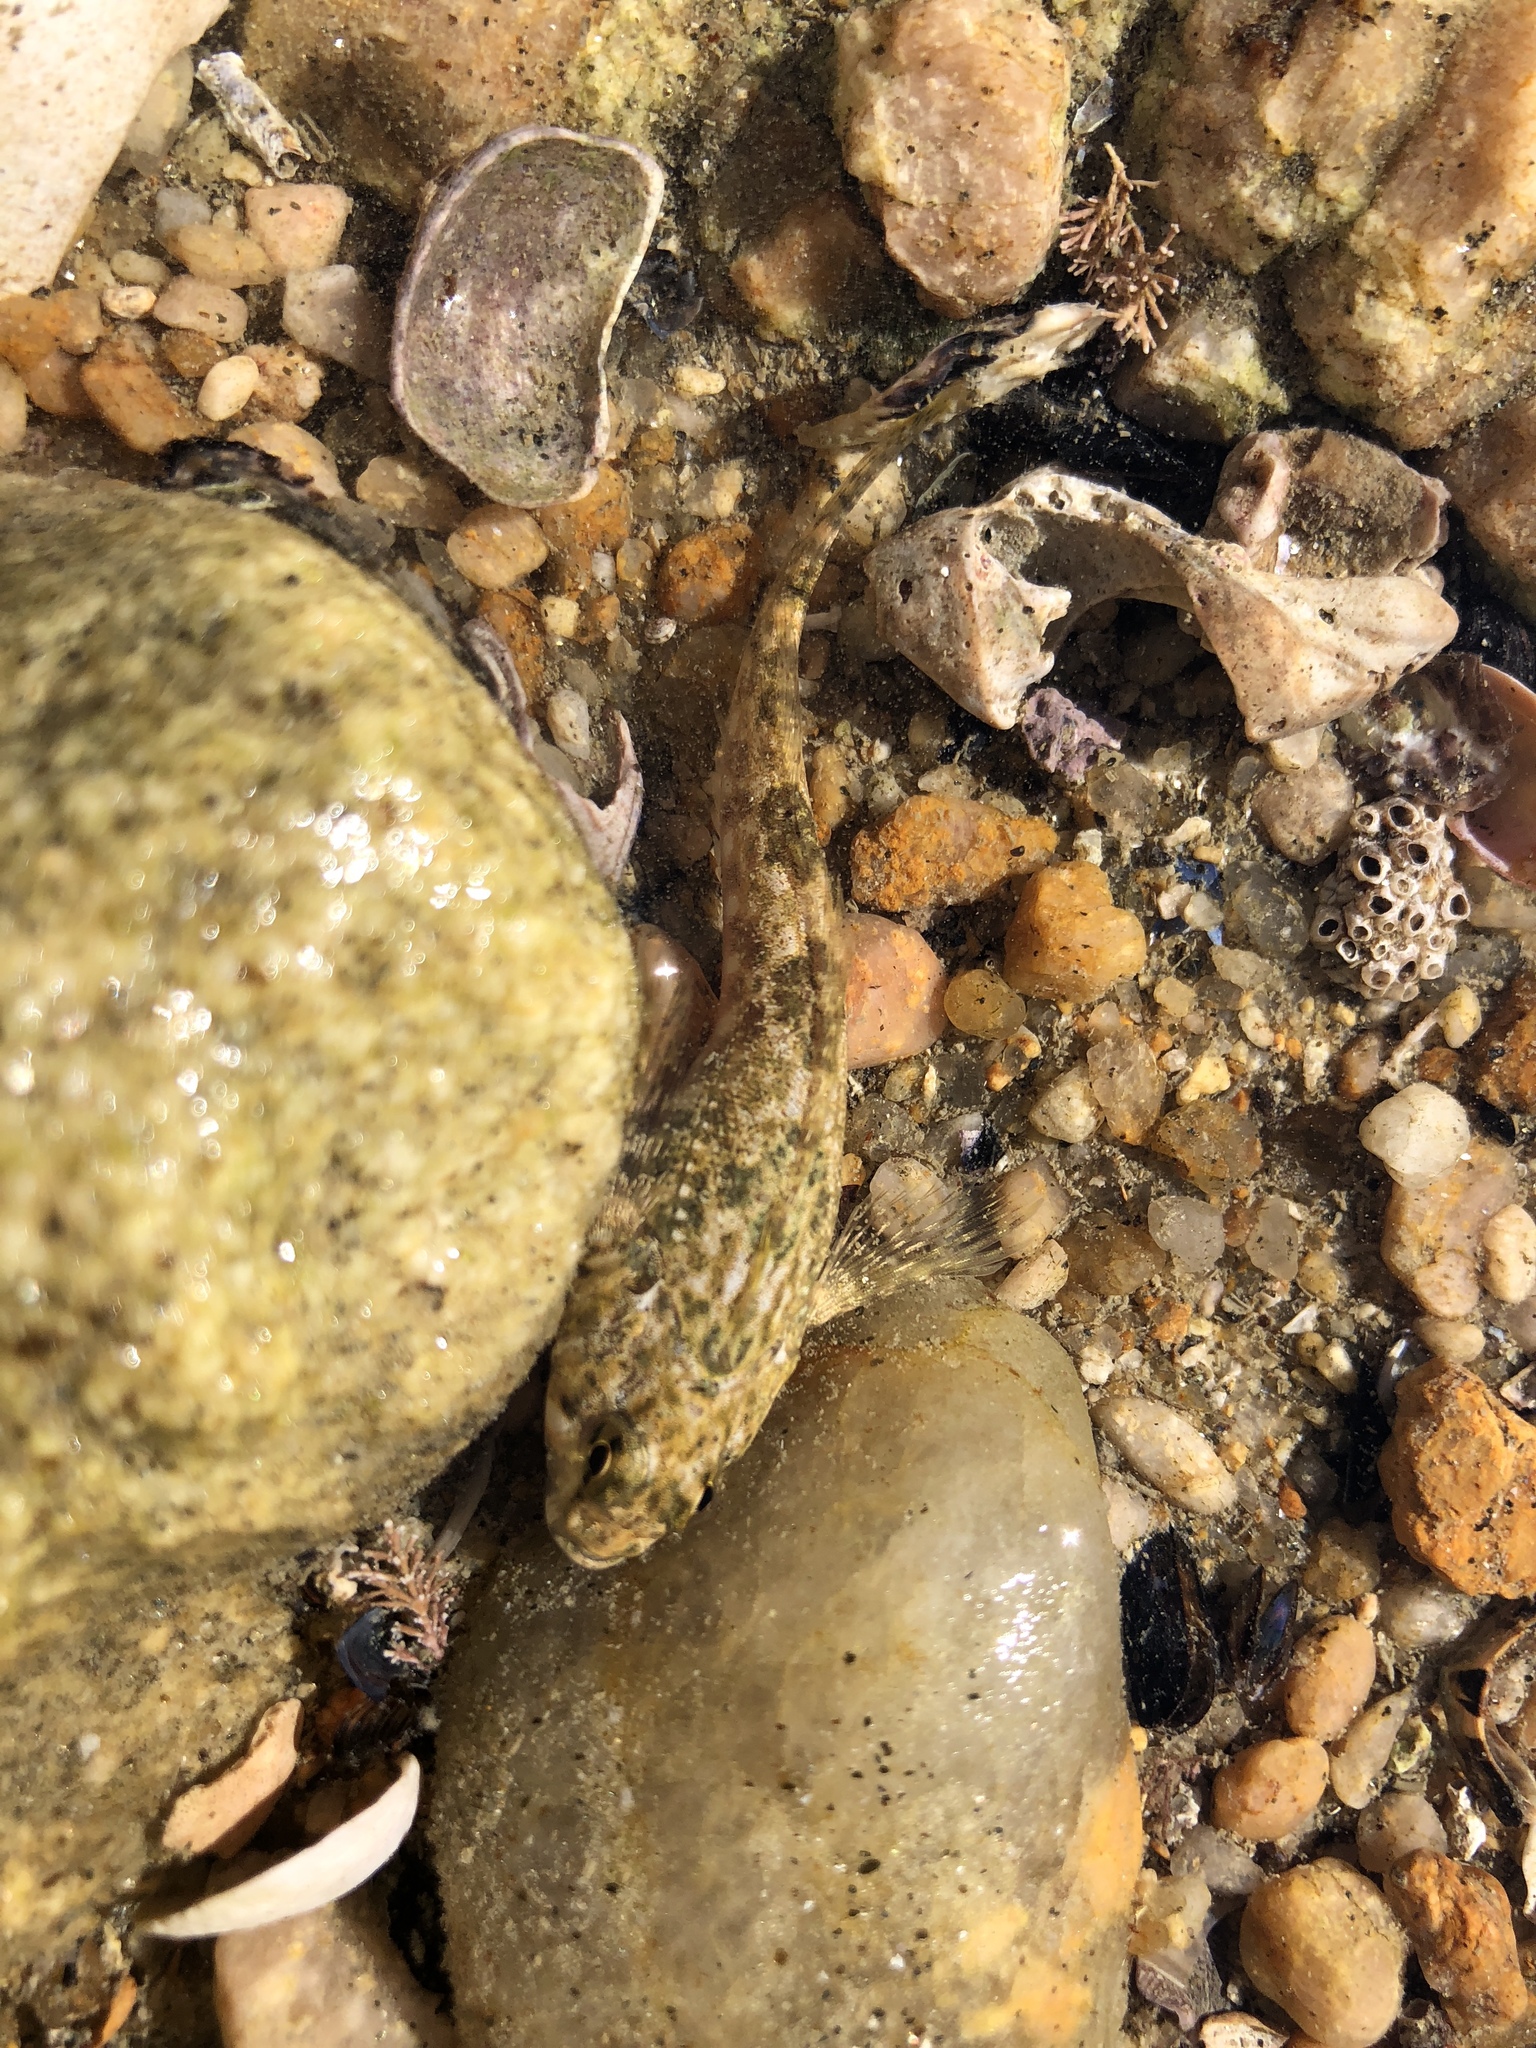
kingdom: Animalia
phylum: Chordata
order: Perciformes
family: Tripterygiidae
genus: Bellapiscis
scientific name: Bellapiscis medius
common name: Twister
